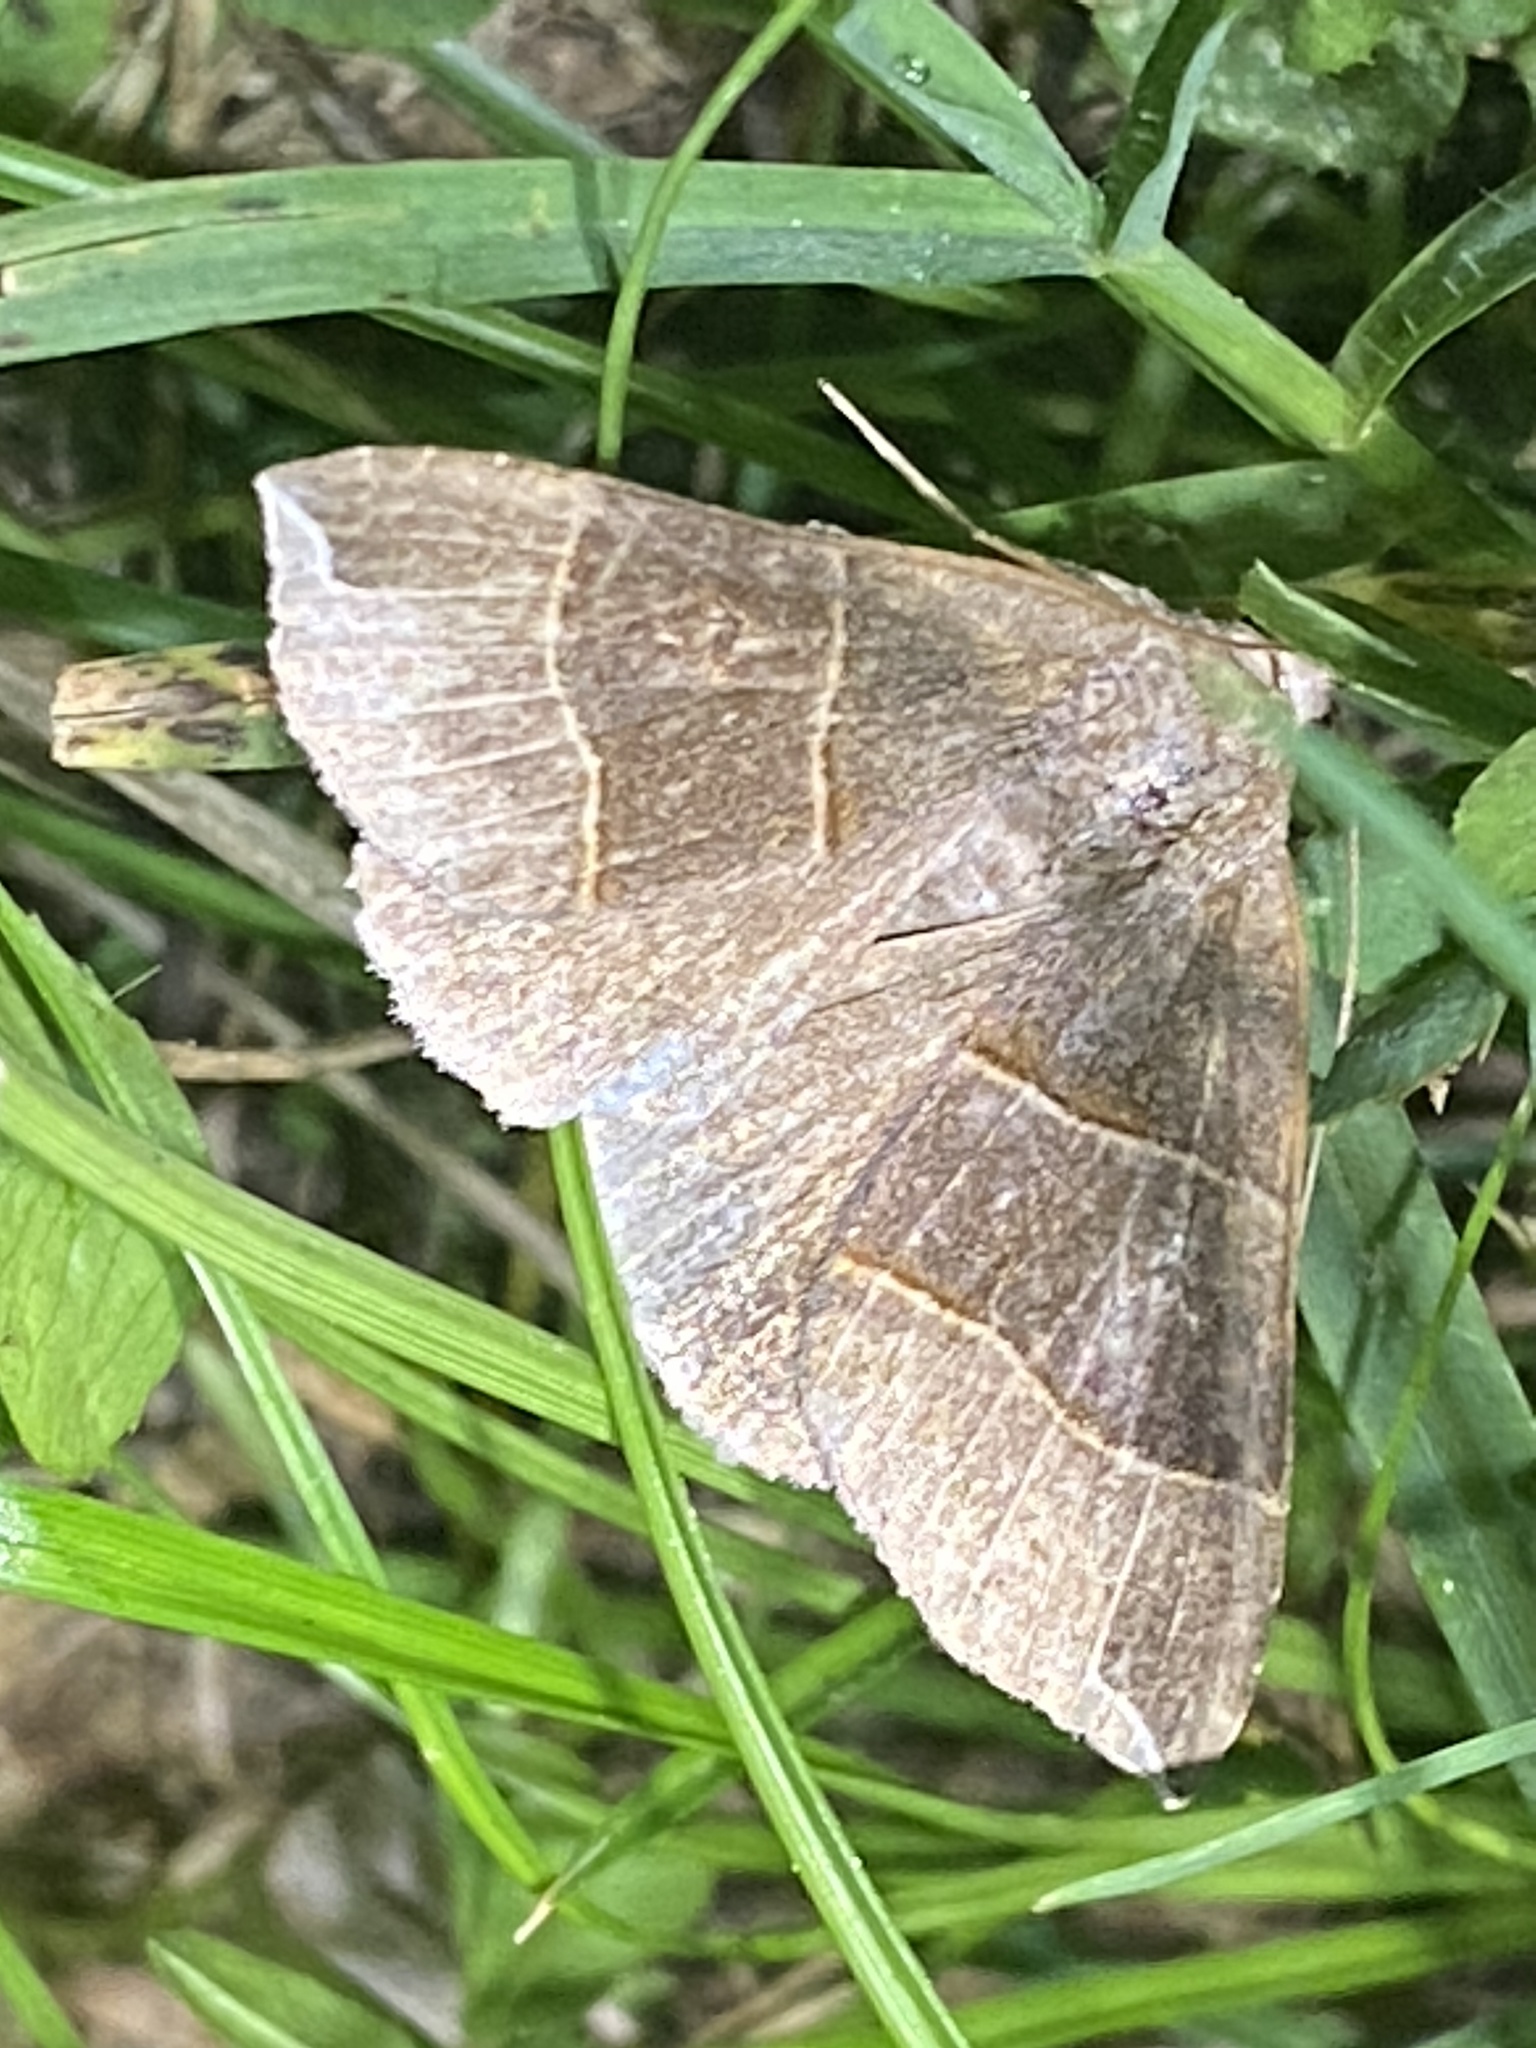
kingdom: Animalia
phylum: Arthropoda
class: Insecta
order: Lepidoptera
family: Erebidae
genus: Parallelia
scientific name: Parallelia bistriaris
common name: Maple looper moth
